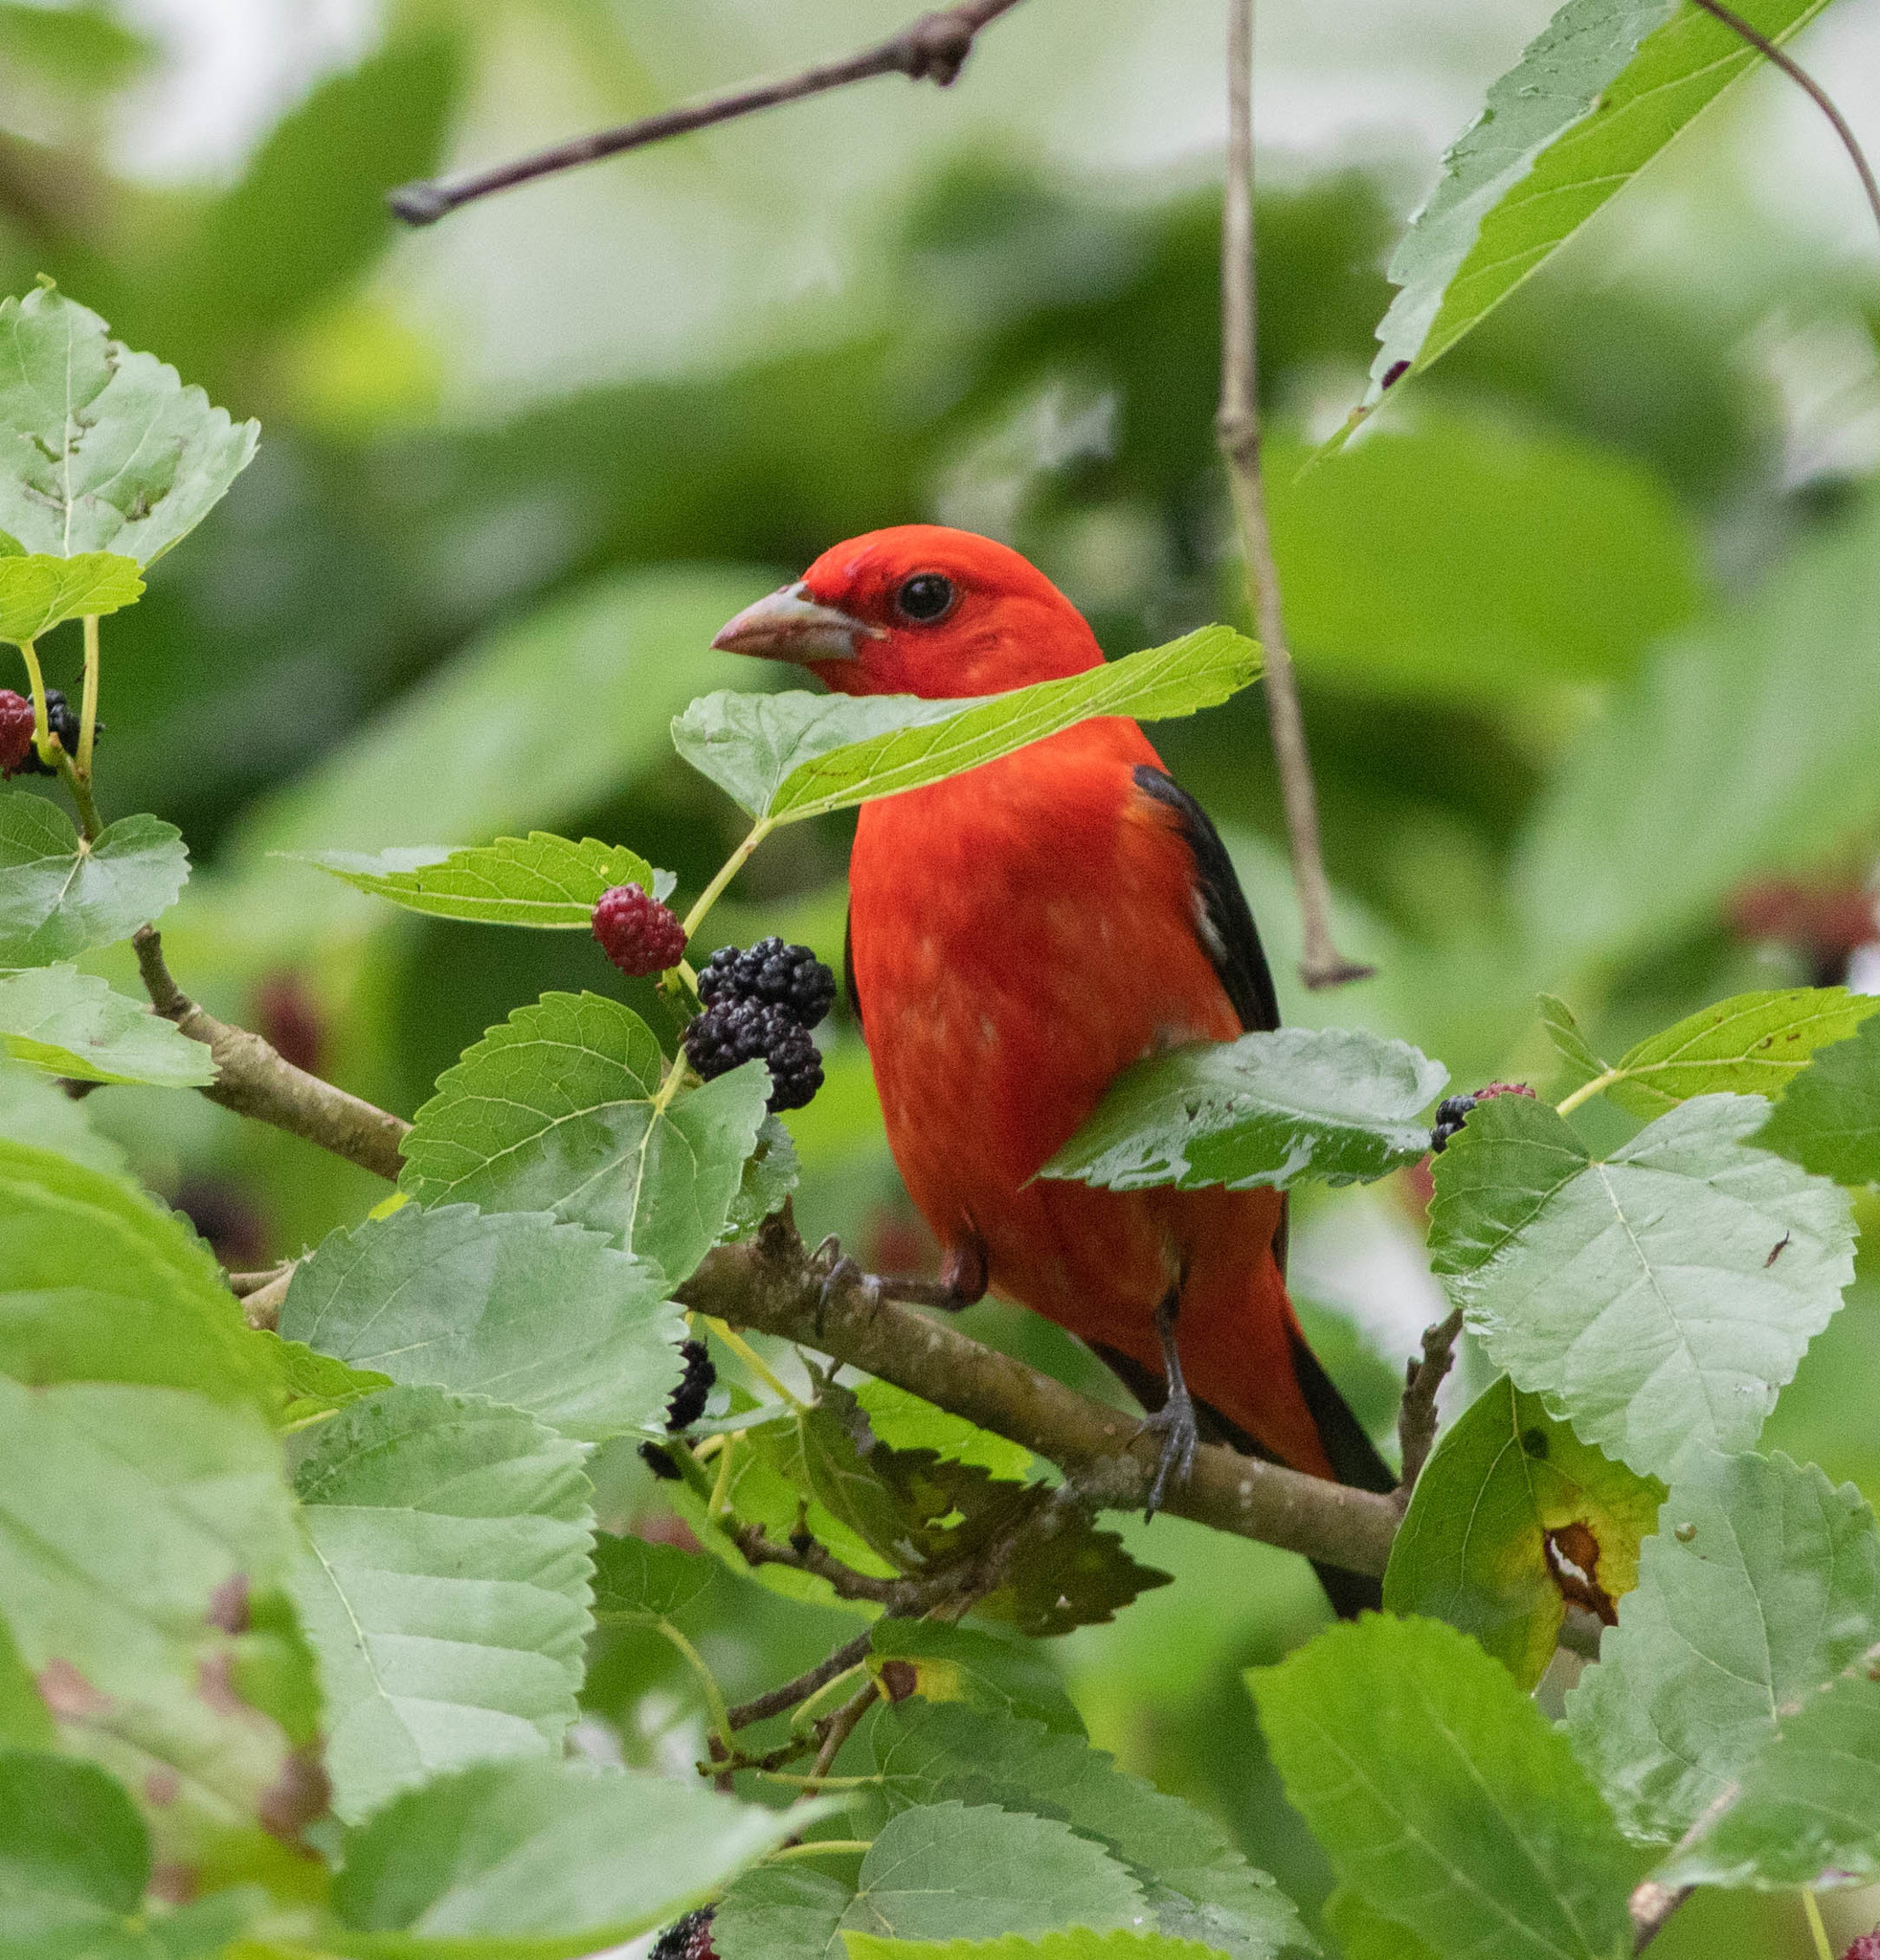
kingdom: Animalia
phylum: Chordata
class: Aves
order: Passeriformes
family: Cardinalidae
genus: Piranga
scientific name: Piranga olivacea
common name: Scarlet tanager
